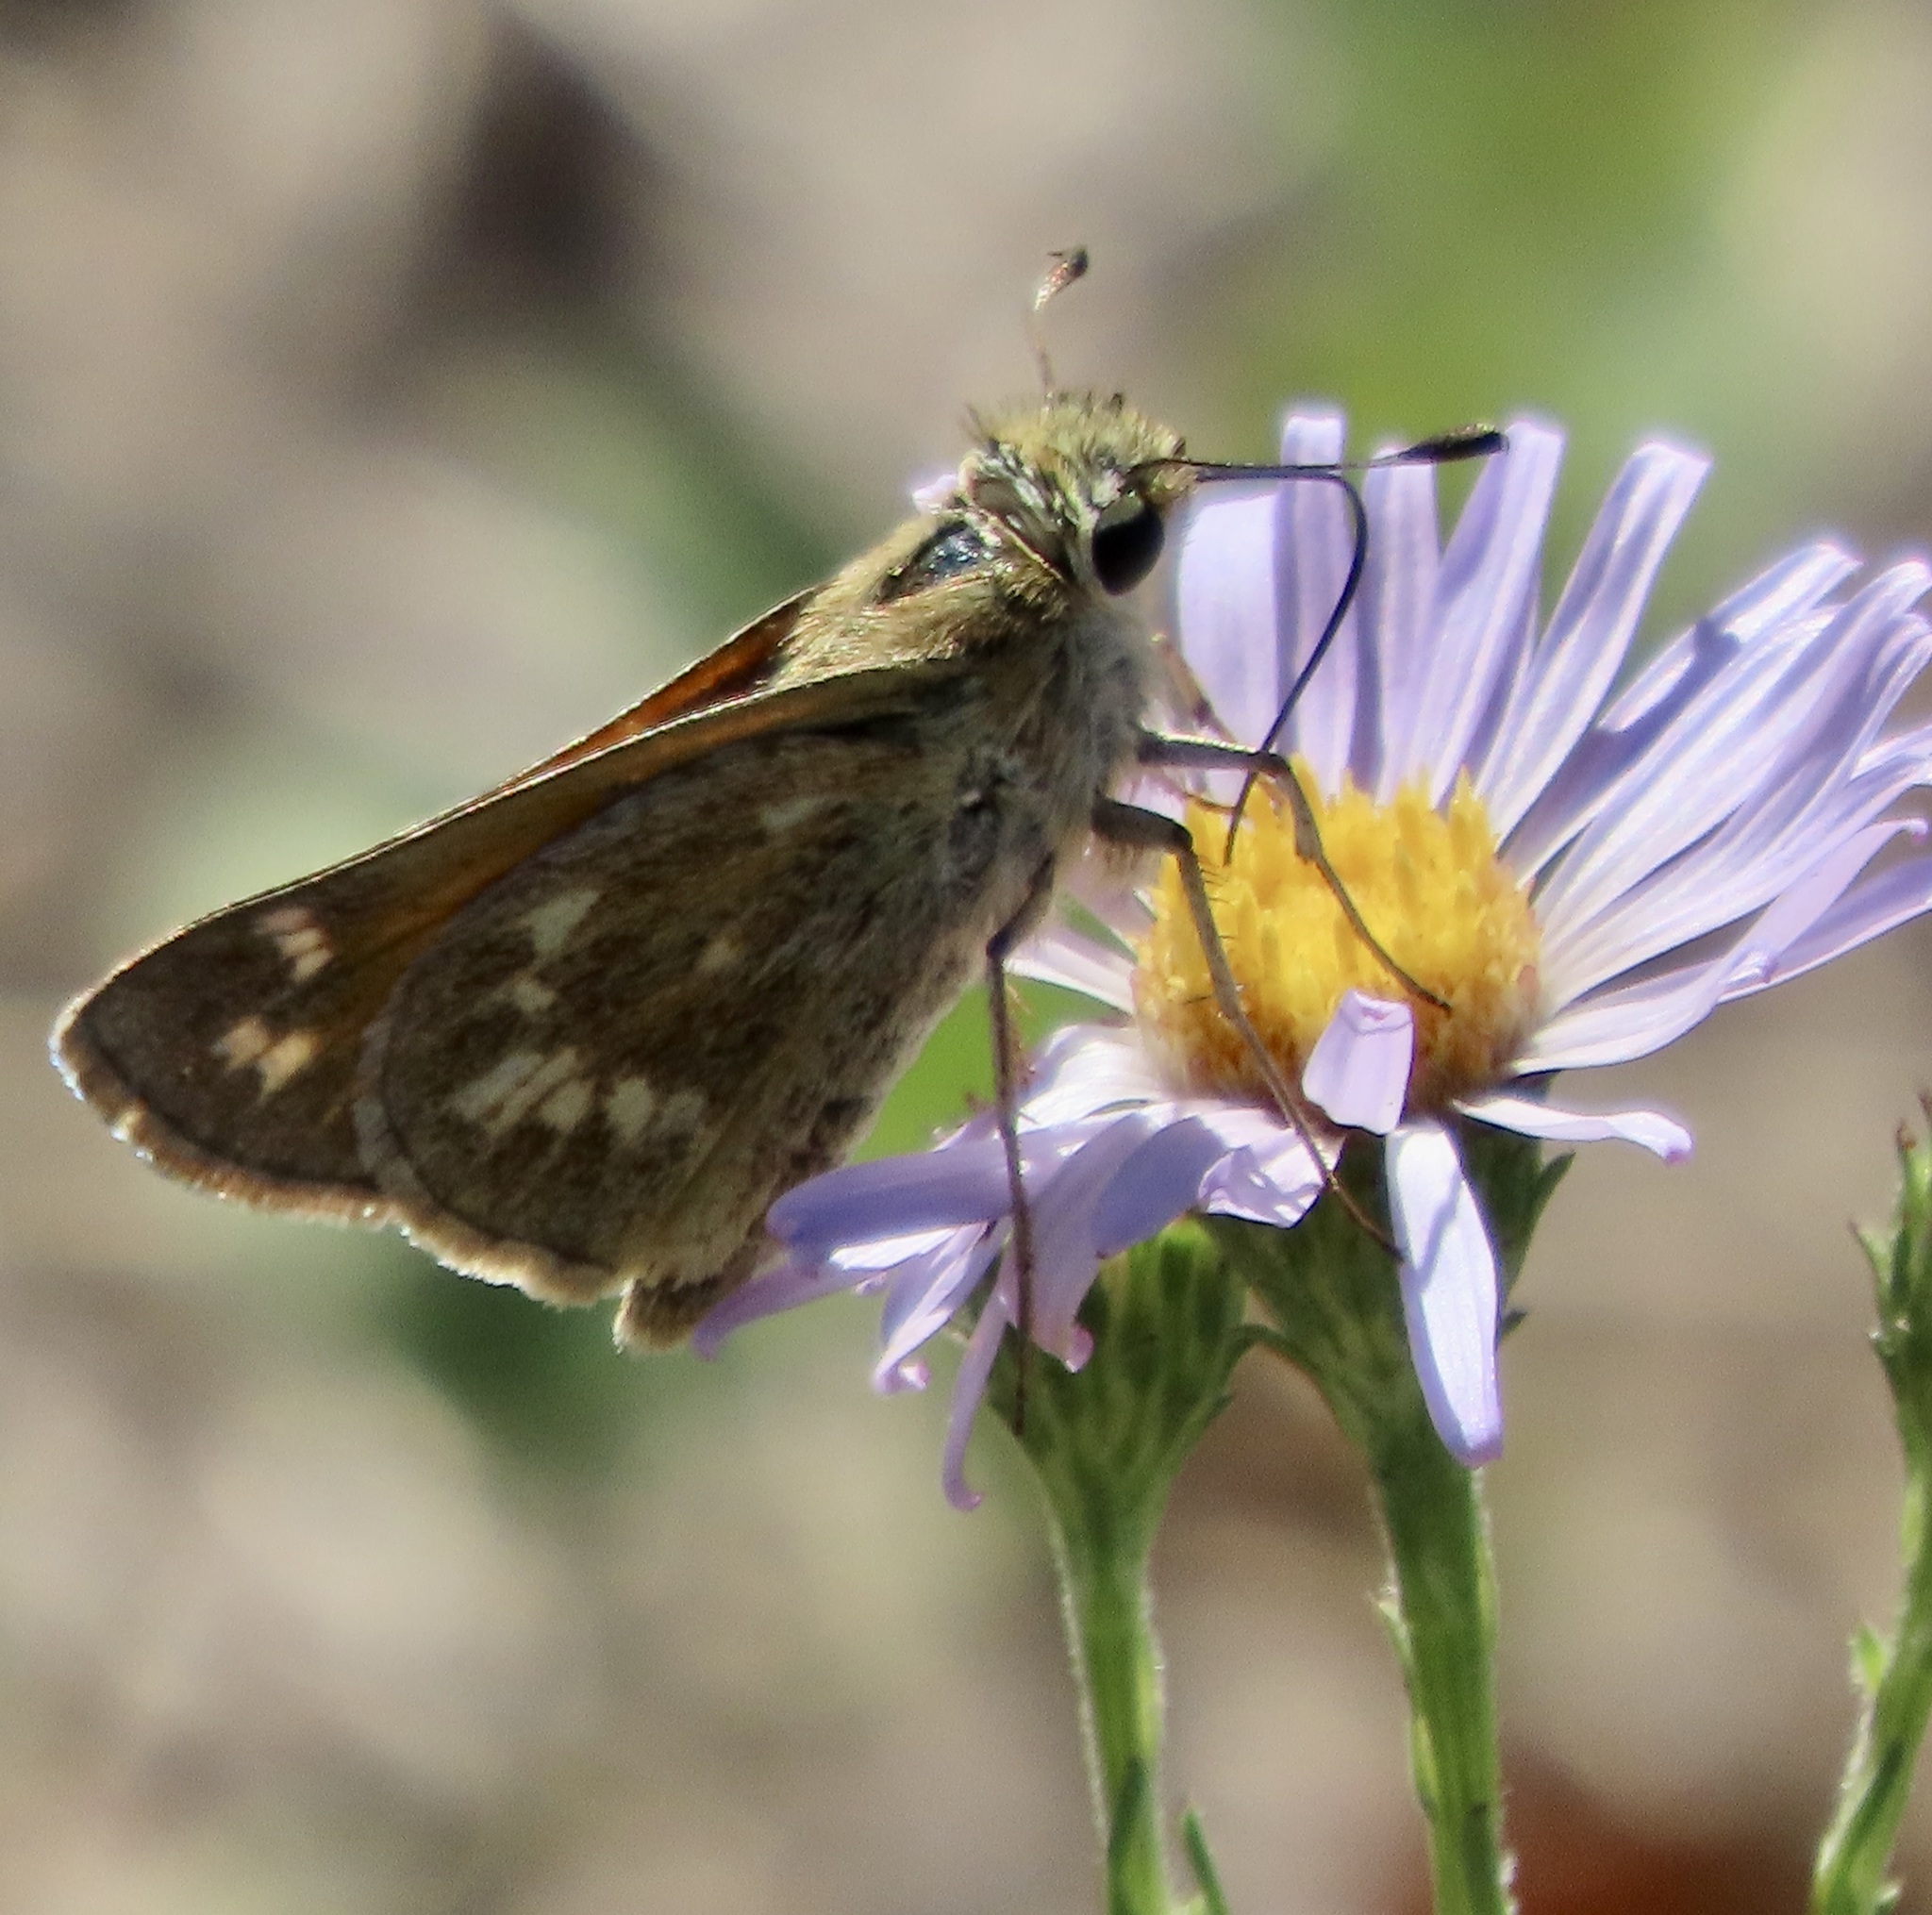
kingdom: Animalia
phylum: Arthropoda
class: Insecta
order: Lepidoptera
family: Hesperiidae
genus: Atalopedes
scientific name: Atalopedes campestris
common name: Sachem
